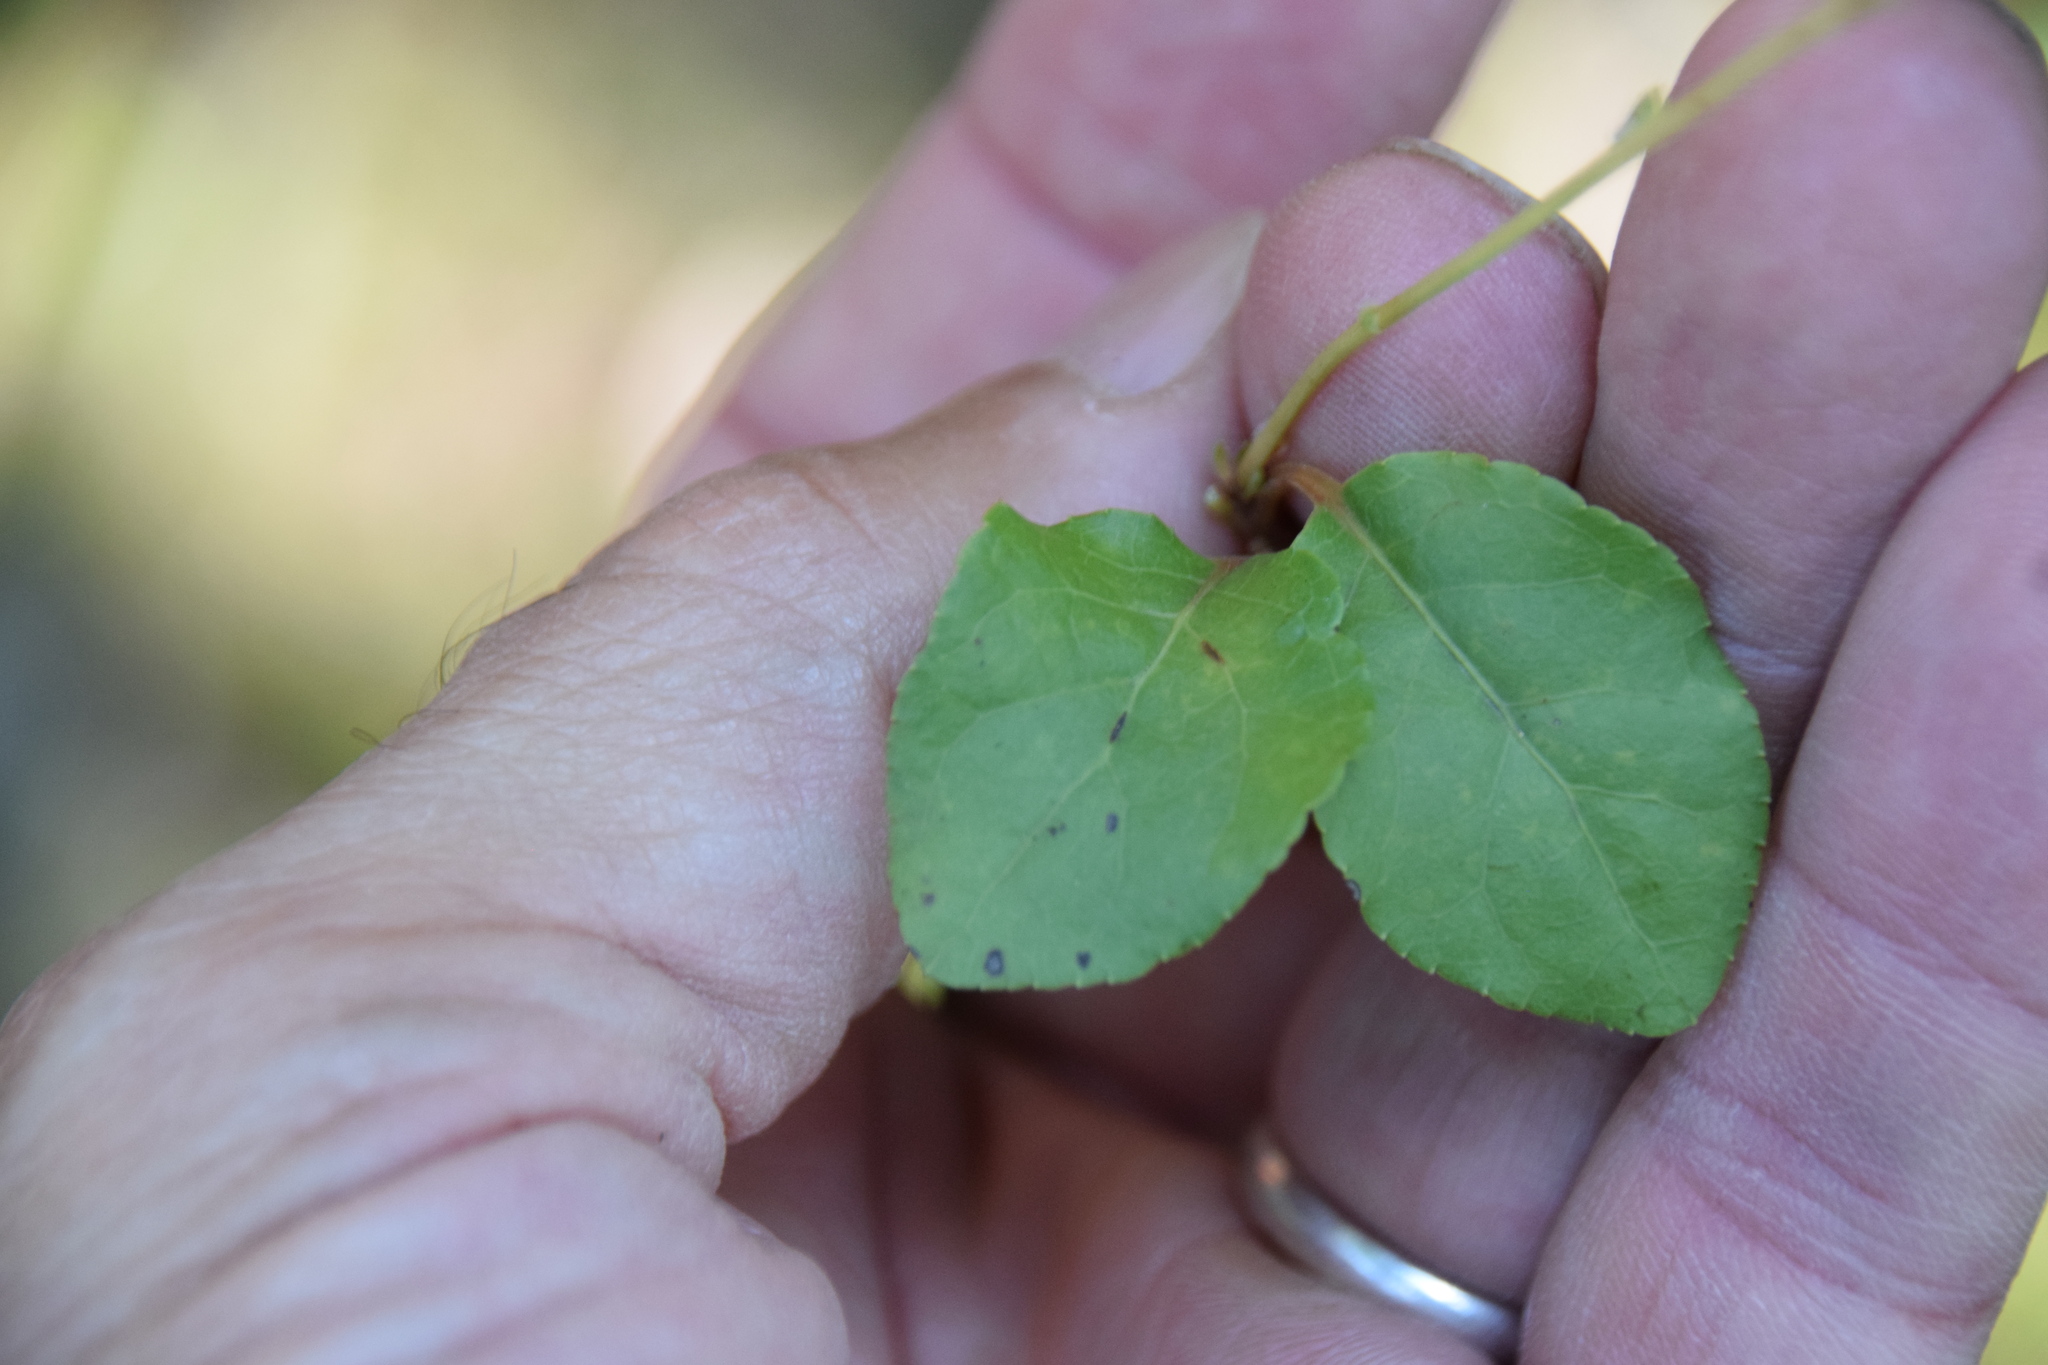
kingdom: Plantae
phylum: Tracheophyta
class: Magnoliopsida
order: Ericales
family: Ericaceae
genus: Orthilia
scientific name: Orthilia secunda
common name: One-sided orthilia
